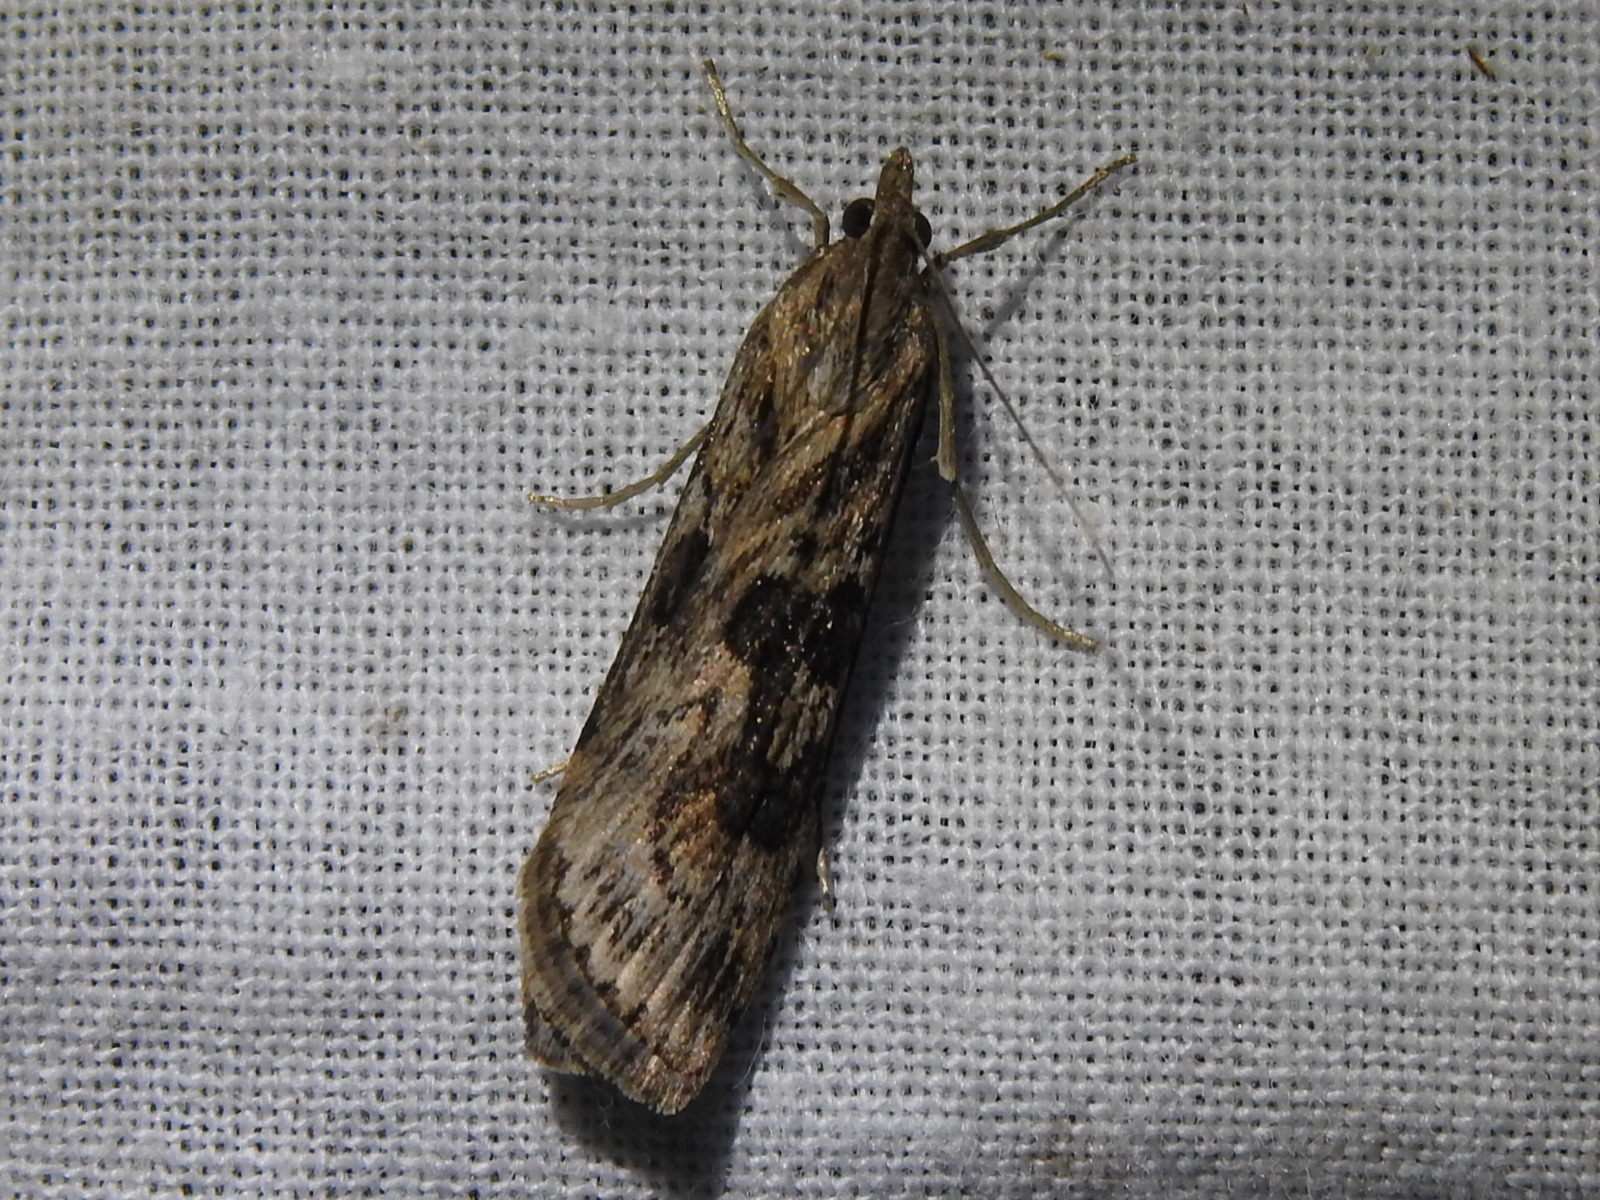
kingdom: Animalia
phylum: Arthropoda
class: Insecta
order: Lepidoptera
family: Crambidae
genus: Nomophila
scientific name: Nomophila nearctica
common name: American rush veneer
